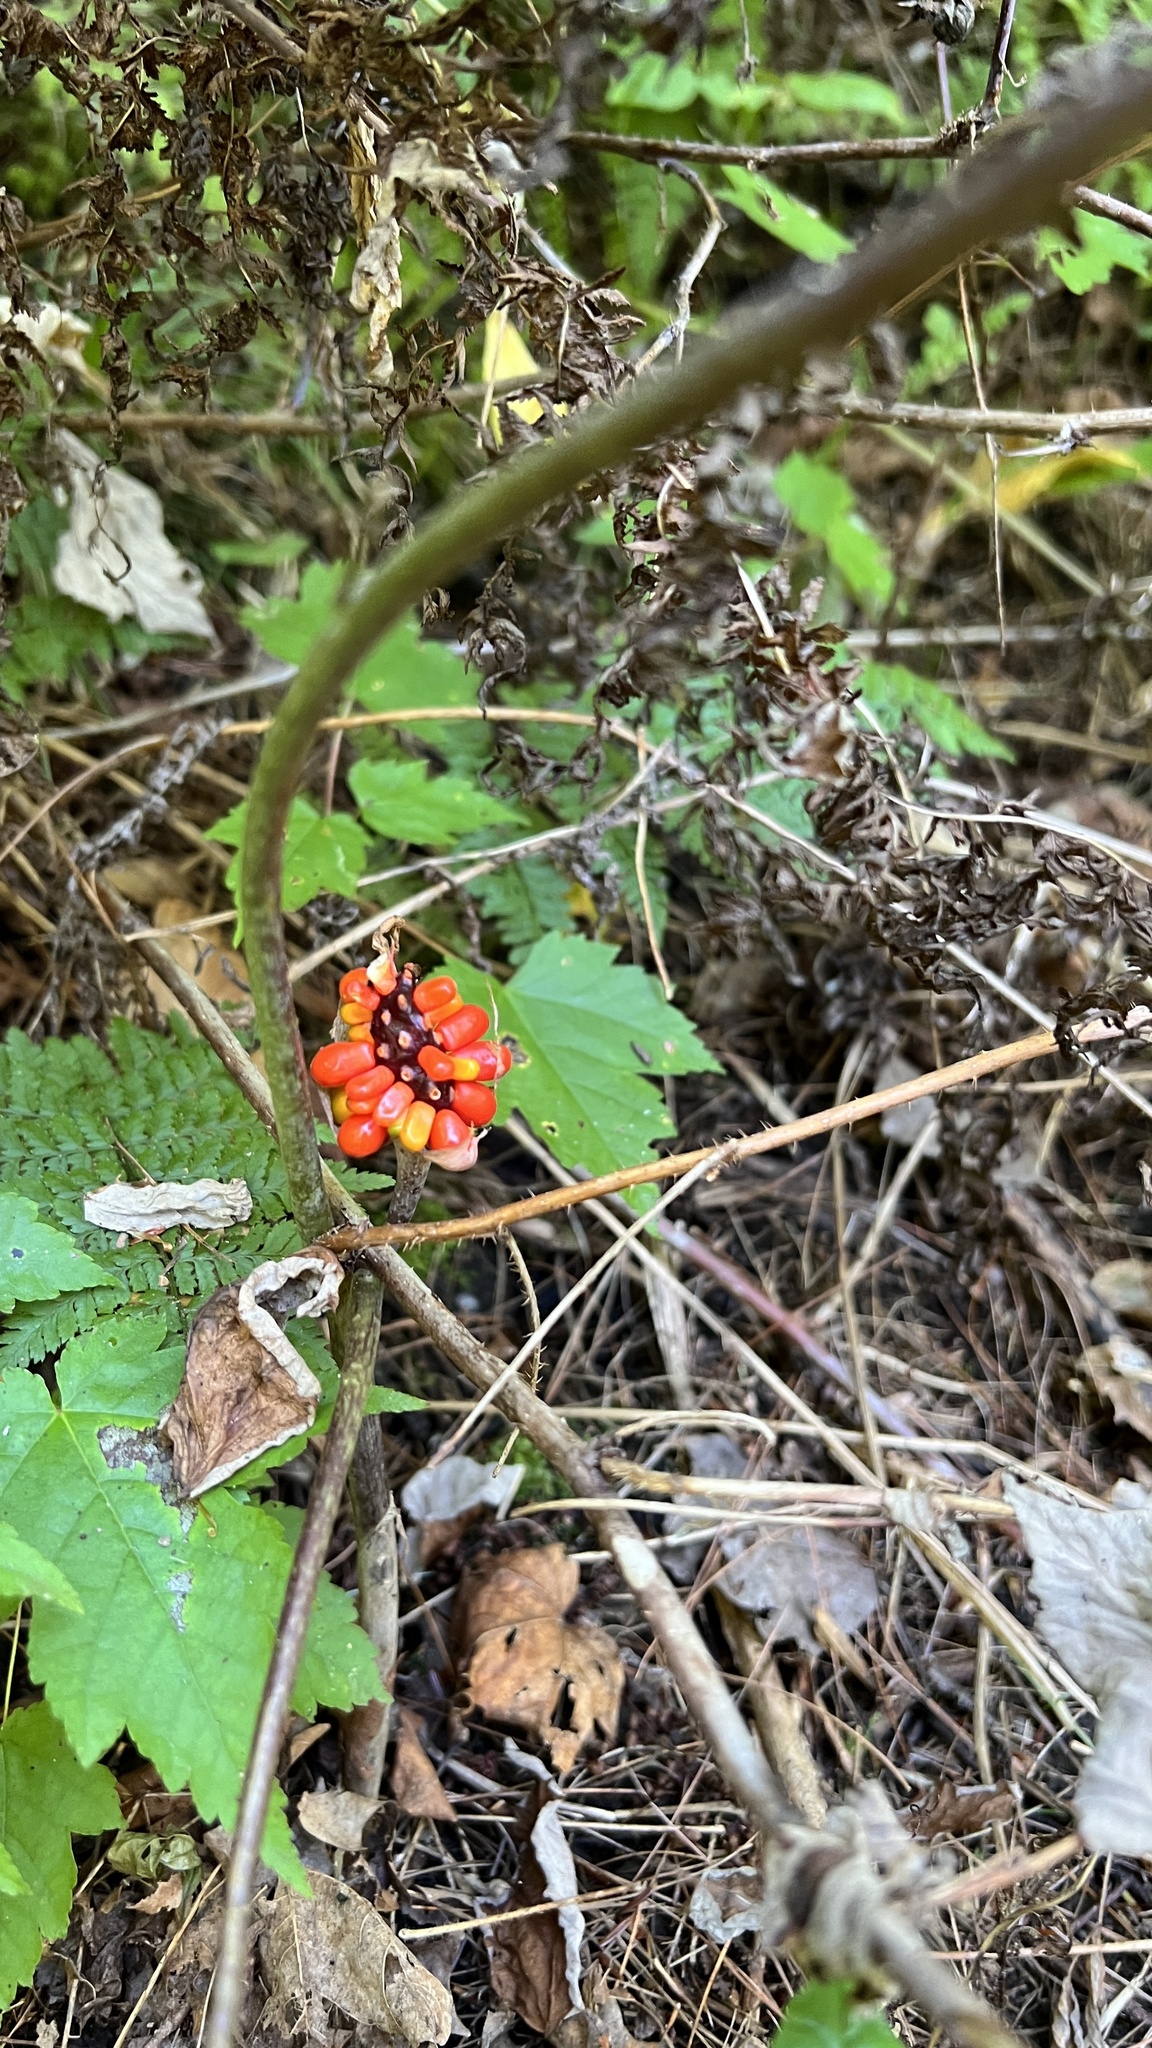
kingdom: Plantae
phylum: Tracheophyta
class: Liliopsida
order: Alismatales
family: Araceae
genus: Arisaema
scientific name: Arisaema triphyllum
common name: Jack-in-the-pulpit
